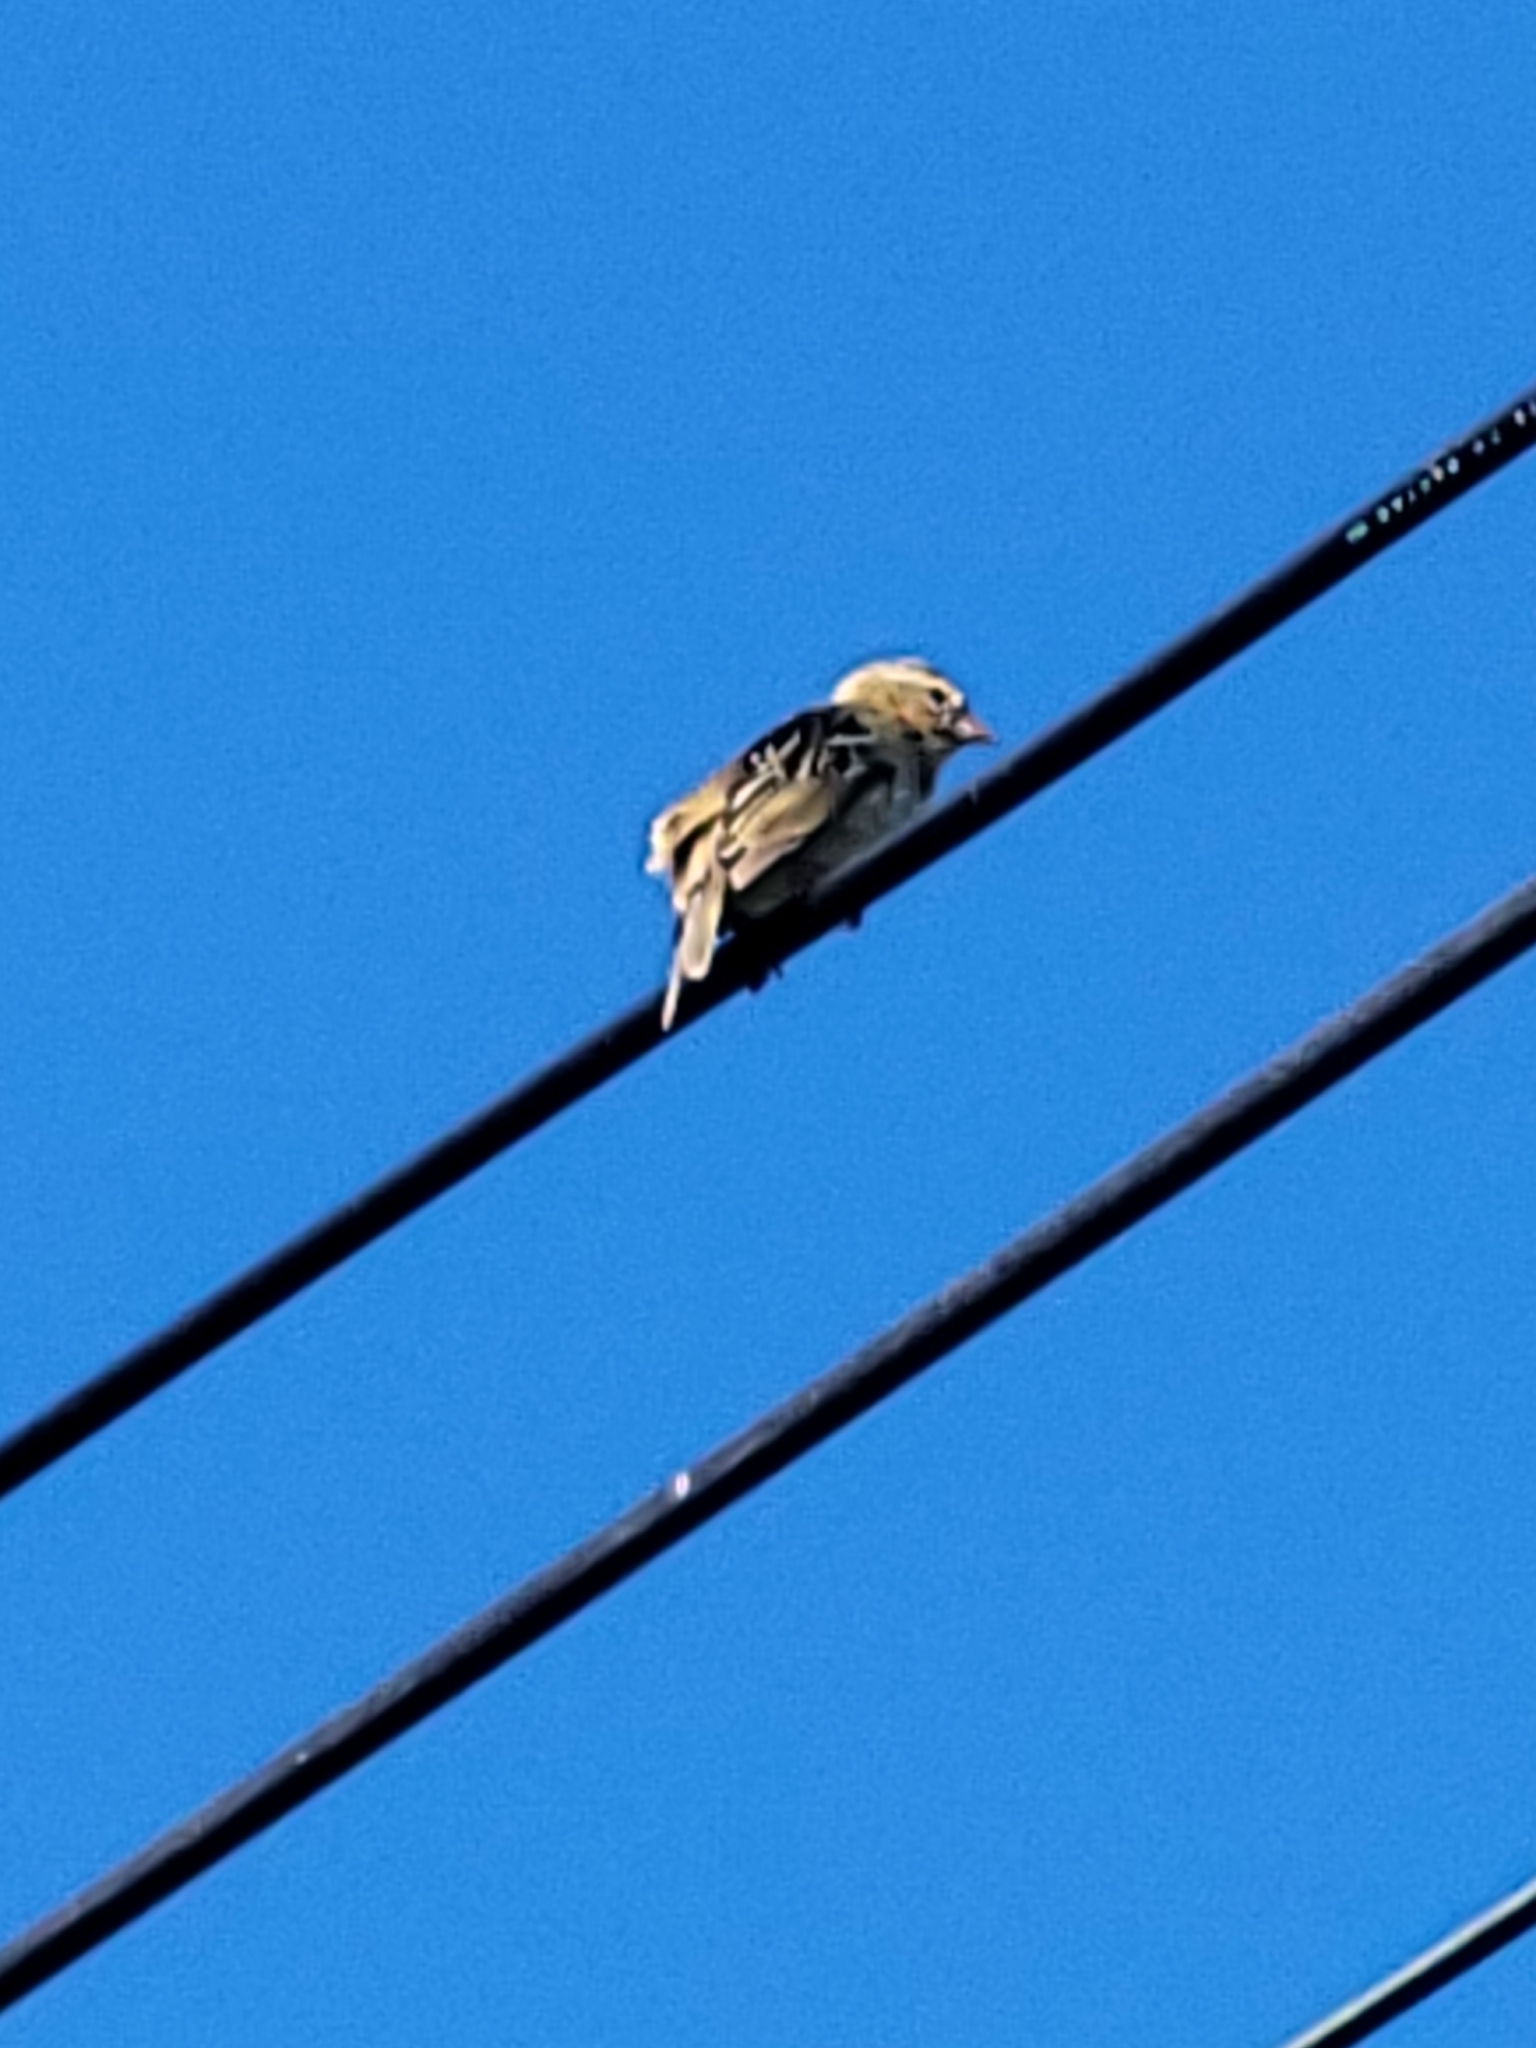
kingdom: Animalia
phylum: Chordata
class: Aves
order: Passeriformes
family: Ploceidae
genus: Foudia
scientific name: Foudia madagascariensis
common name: Red fody
